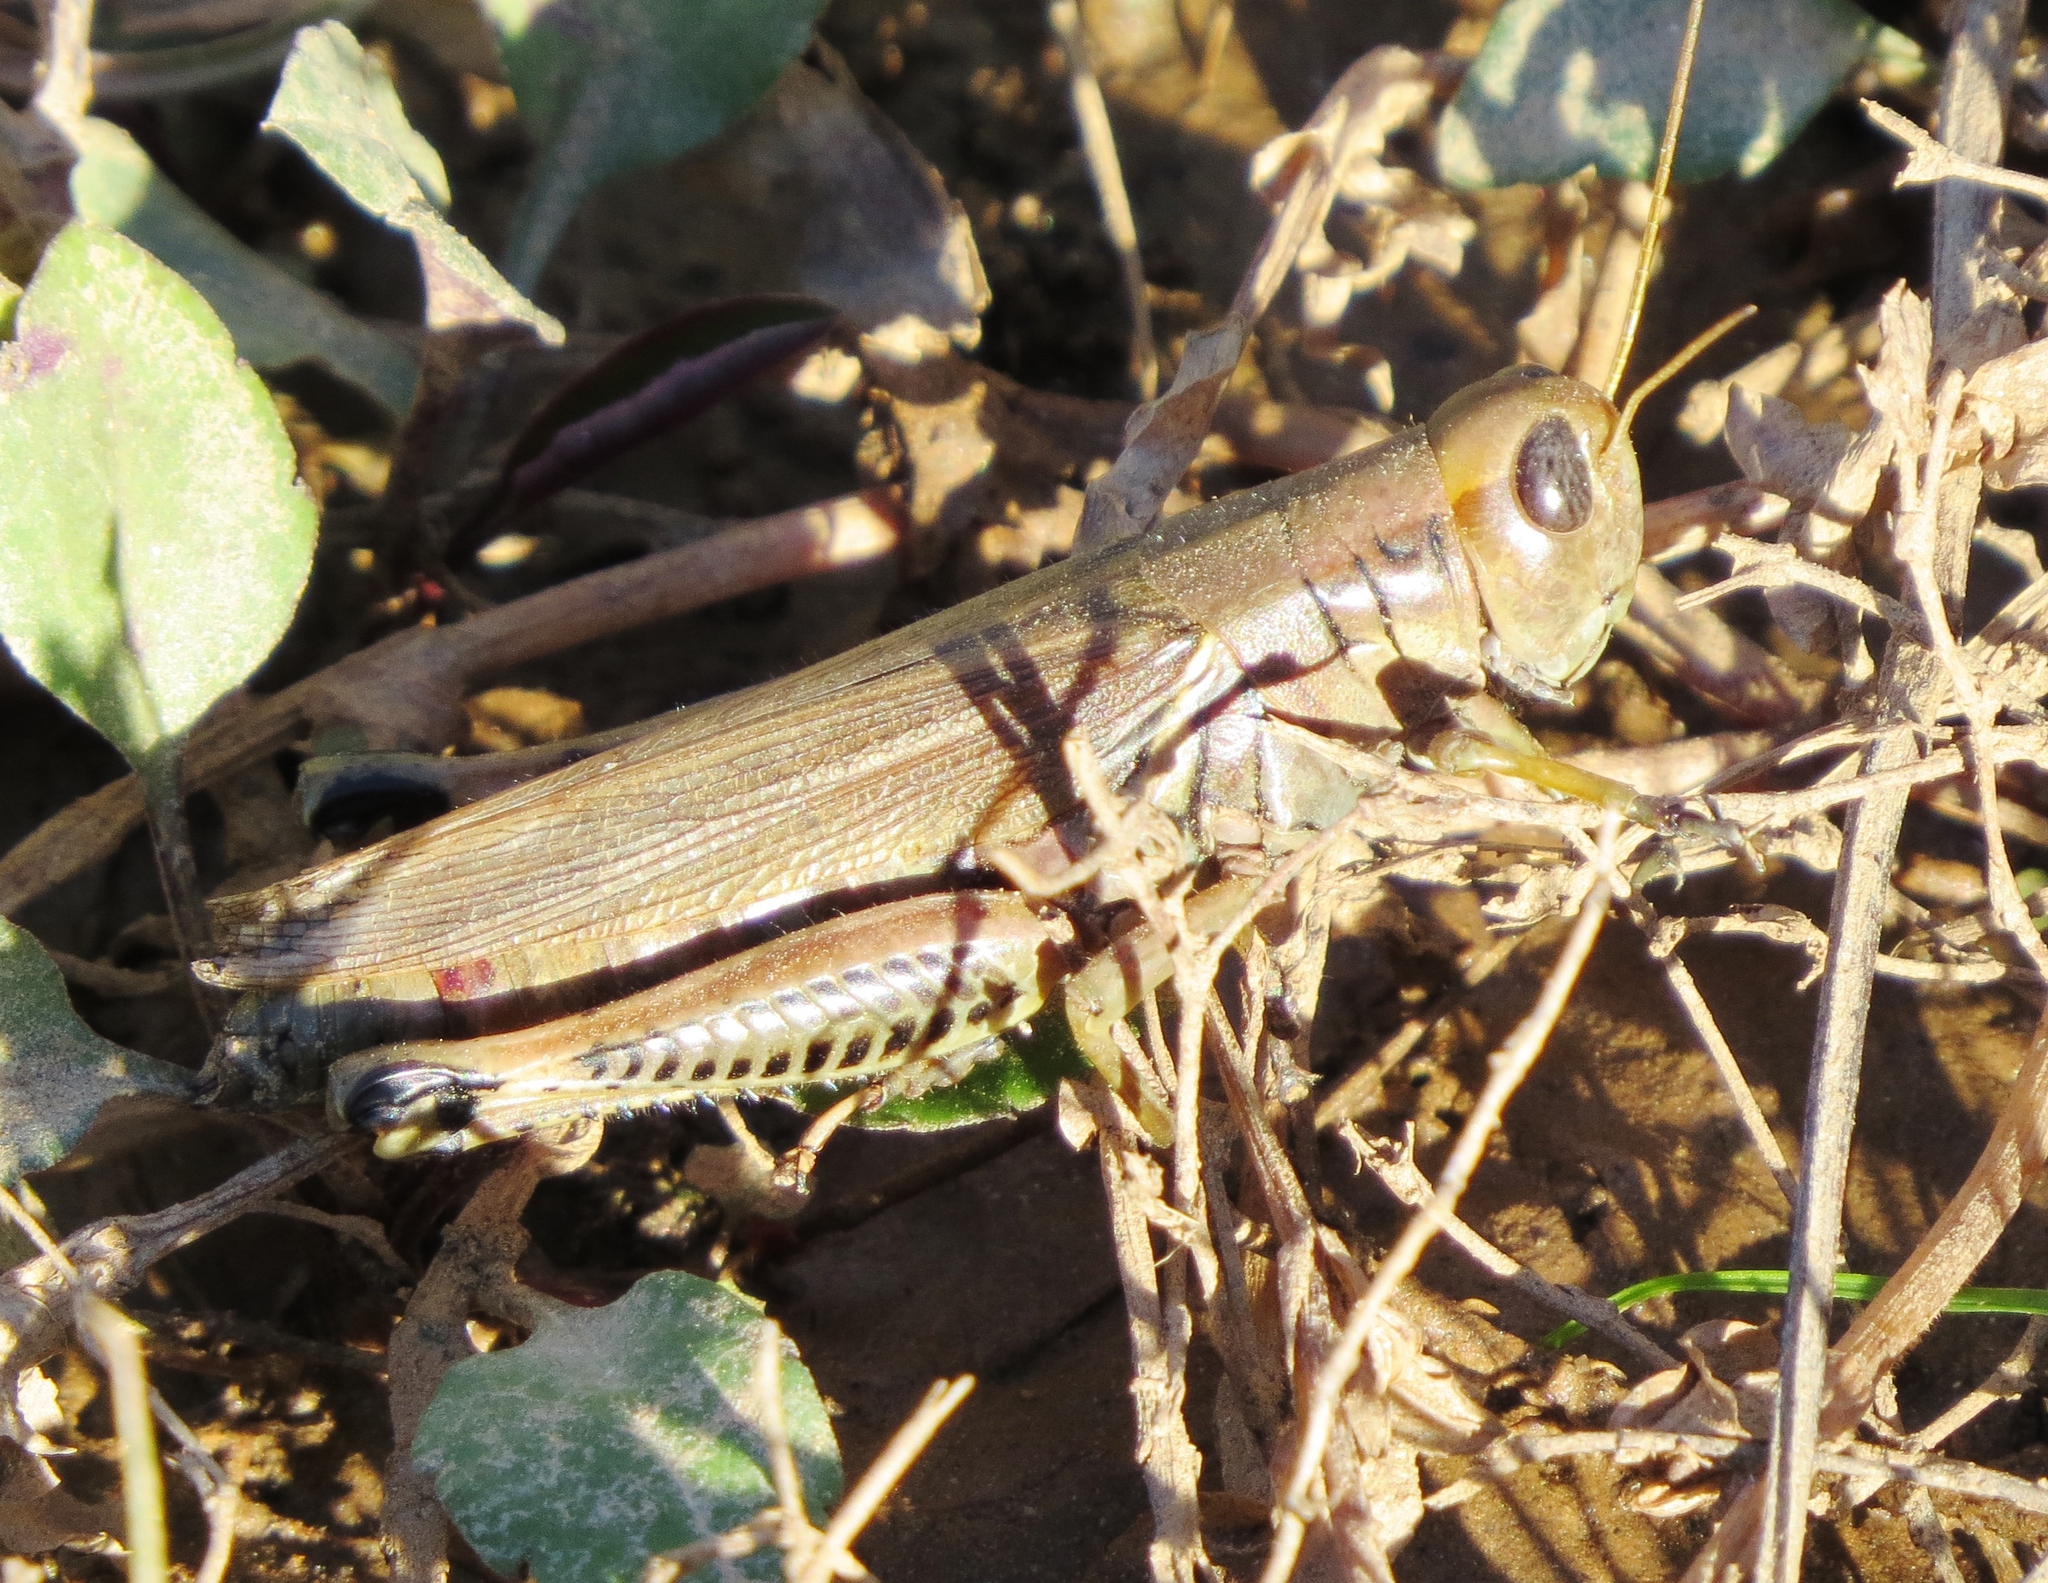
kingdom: Animalia
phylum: Arthropoda
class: Insecta
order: Orthoptera
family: Acrididae
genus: Melanoplus
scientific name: Melanoplus differentialis
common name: Differential grasshopper
